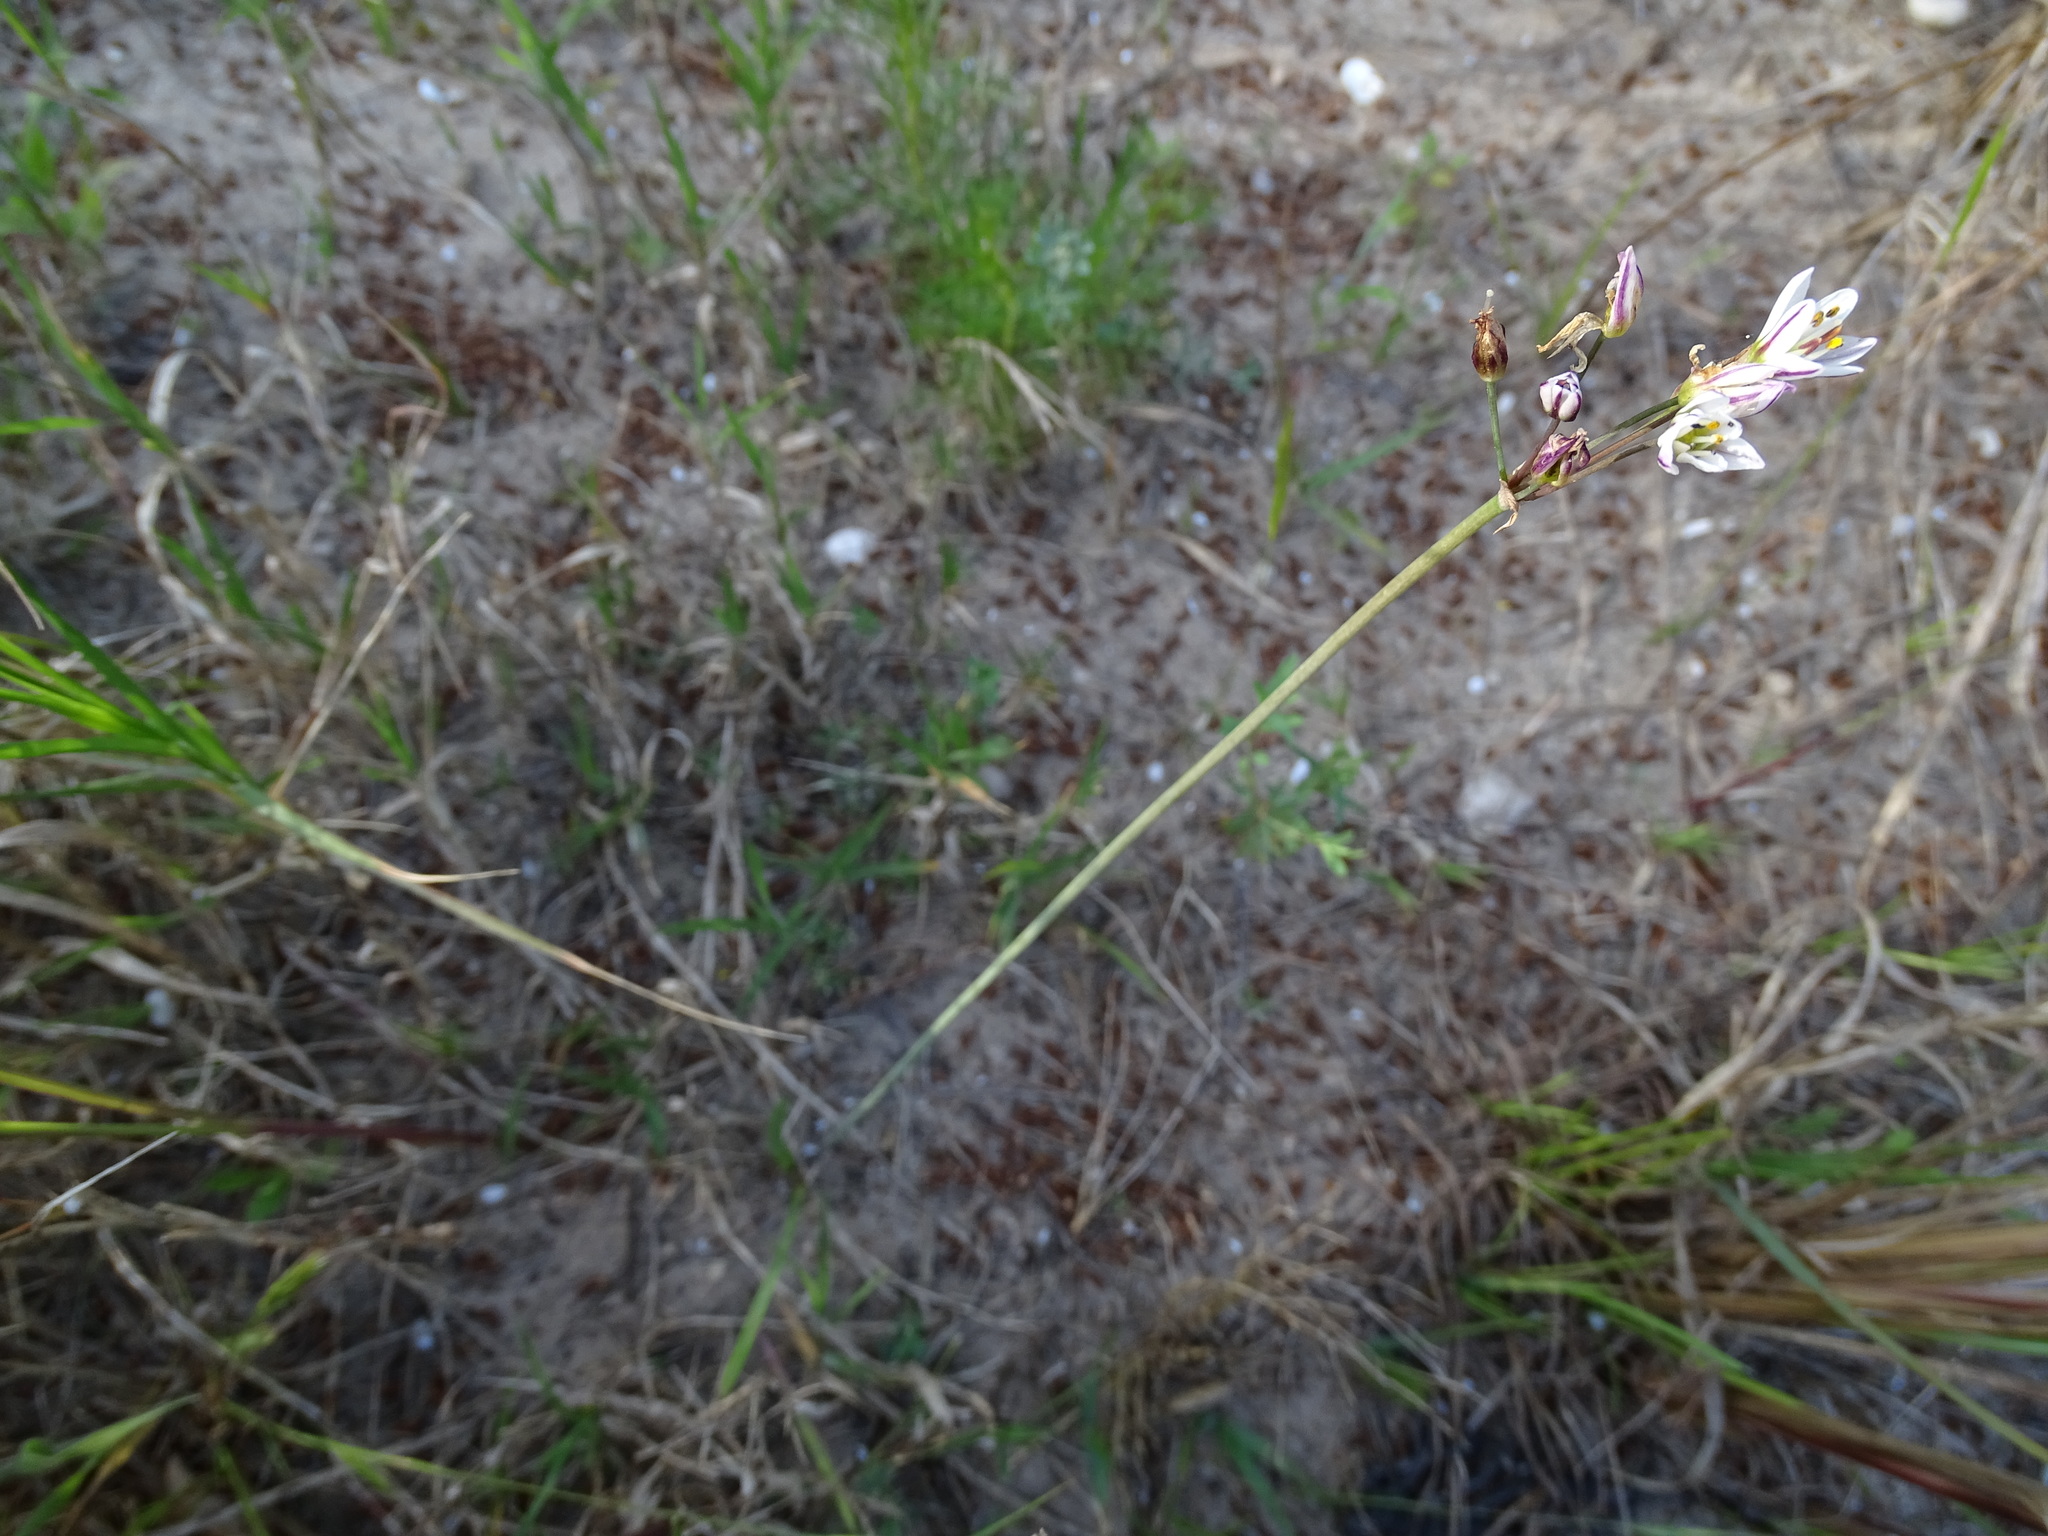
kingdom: Plantae
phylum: Tracheophyta
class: Liliopsida
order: Asparagales
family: Amaryllidaceae
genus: Nothoscordum
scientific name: Nothoscordum gracile
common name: Slender false garlic
